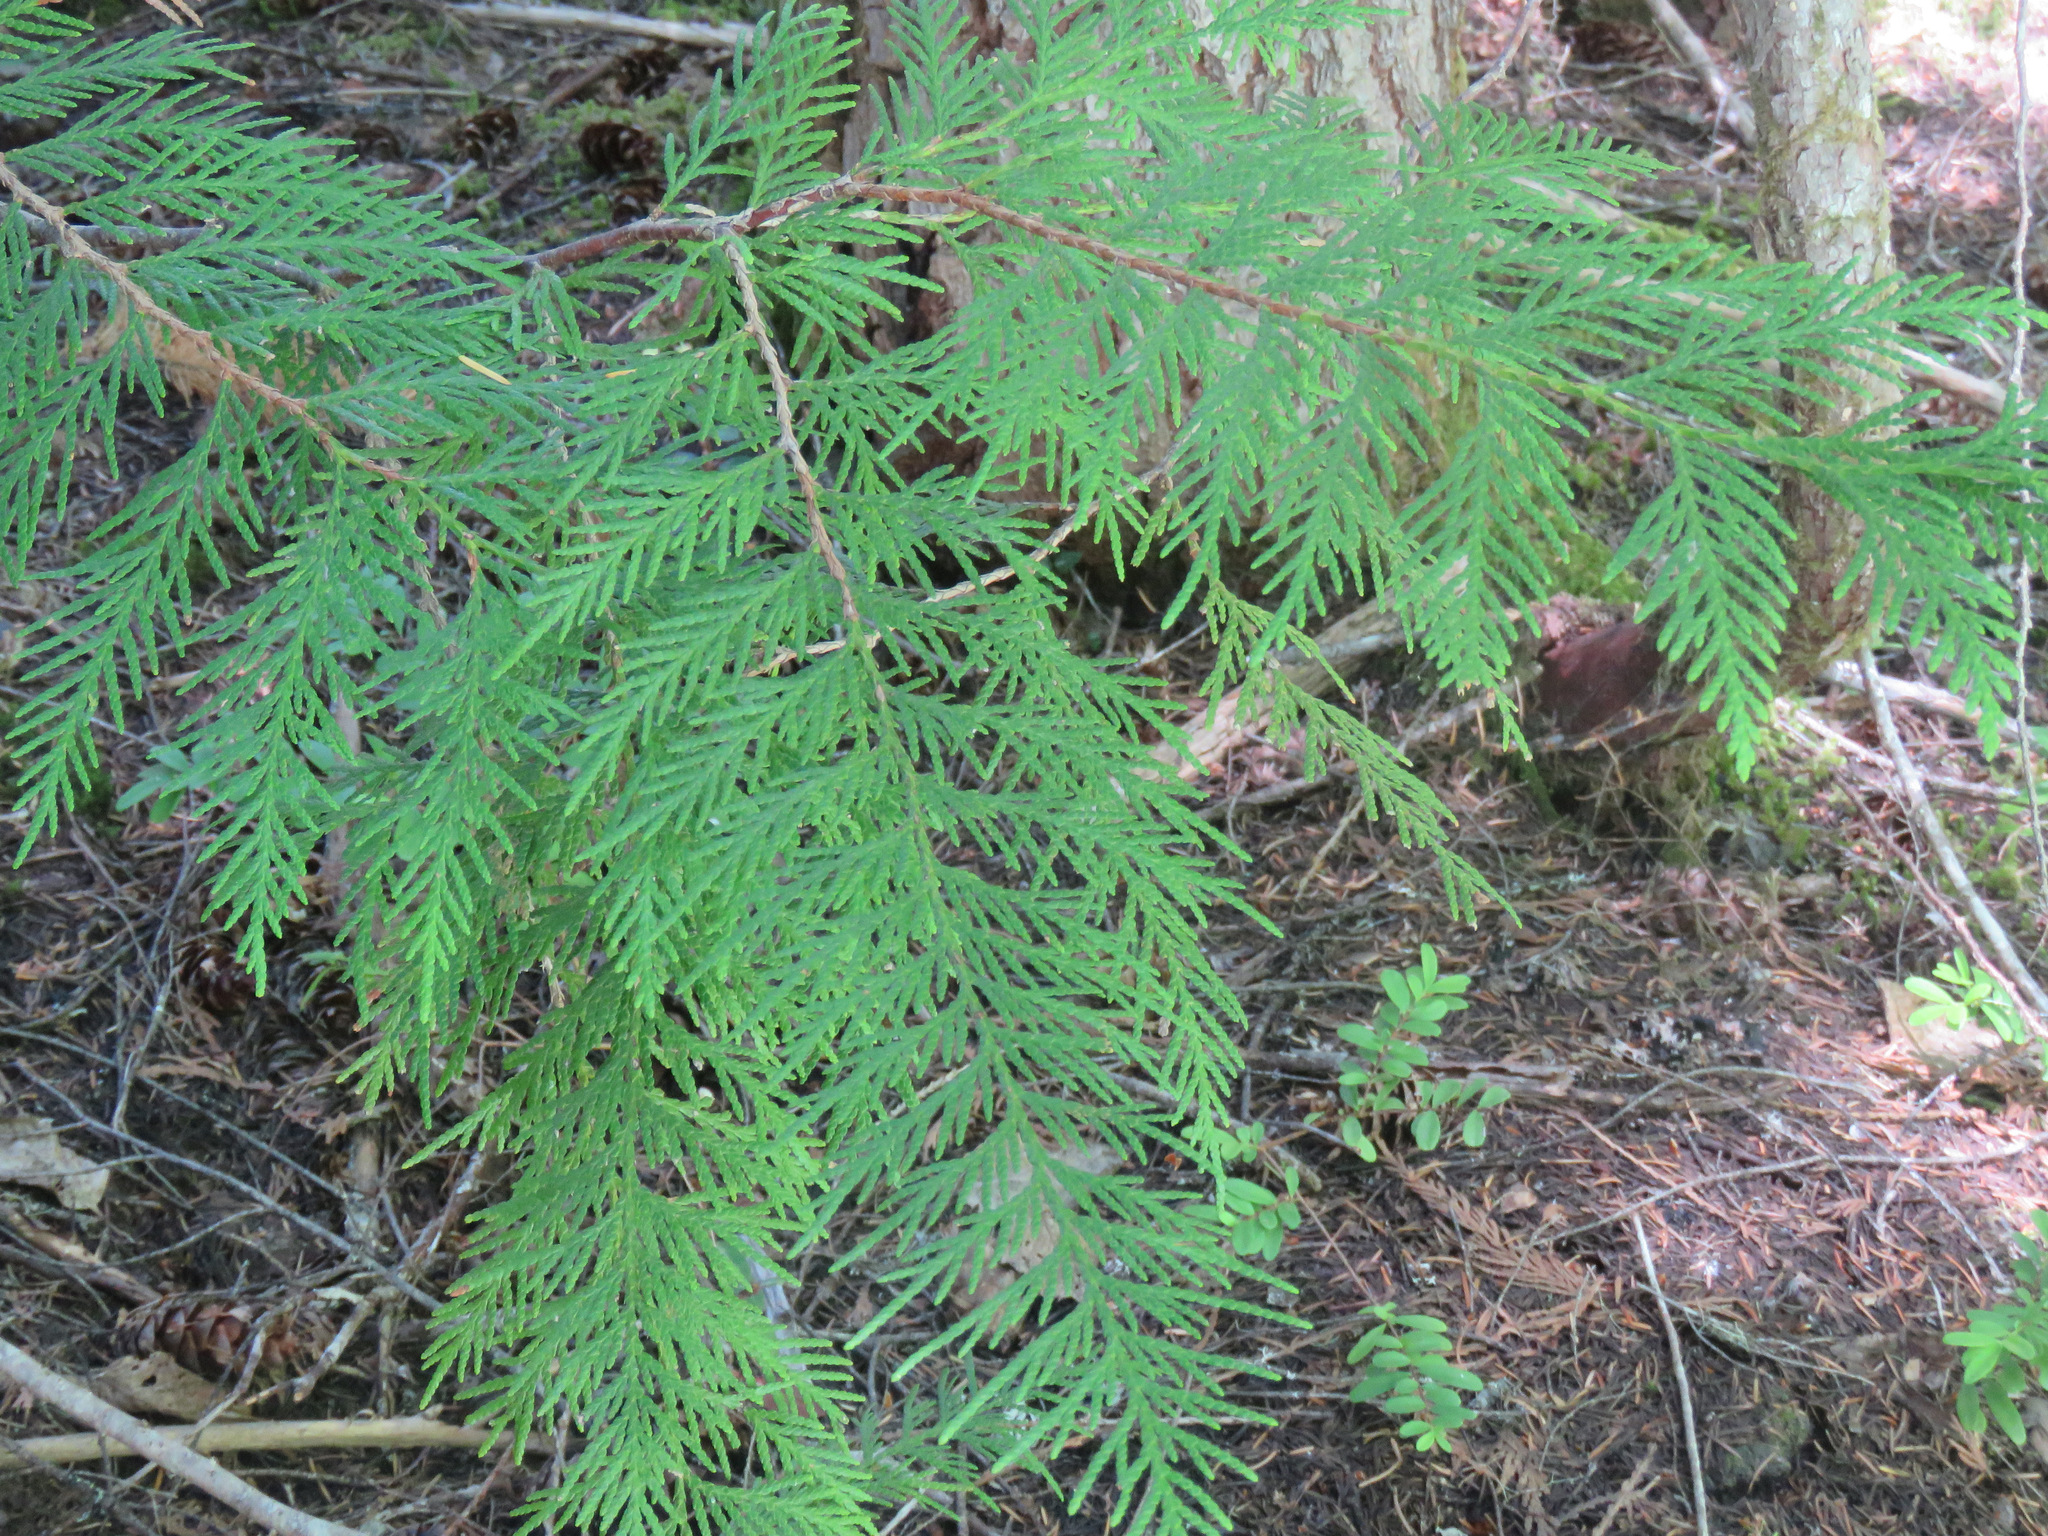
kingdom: Plantae
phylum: Tracheophyta
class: Pinopsida
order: Pinales
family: Cupressaceae
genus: Thuja
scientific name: Thuja plicata
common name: Western red-cedar
